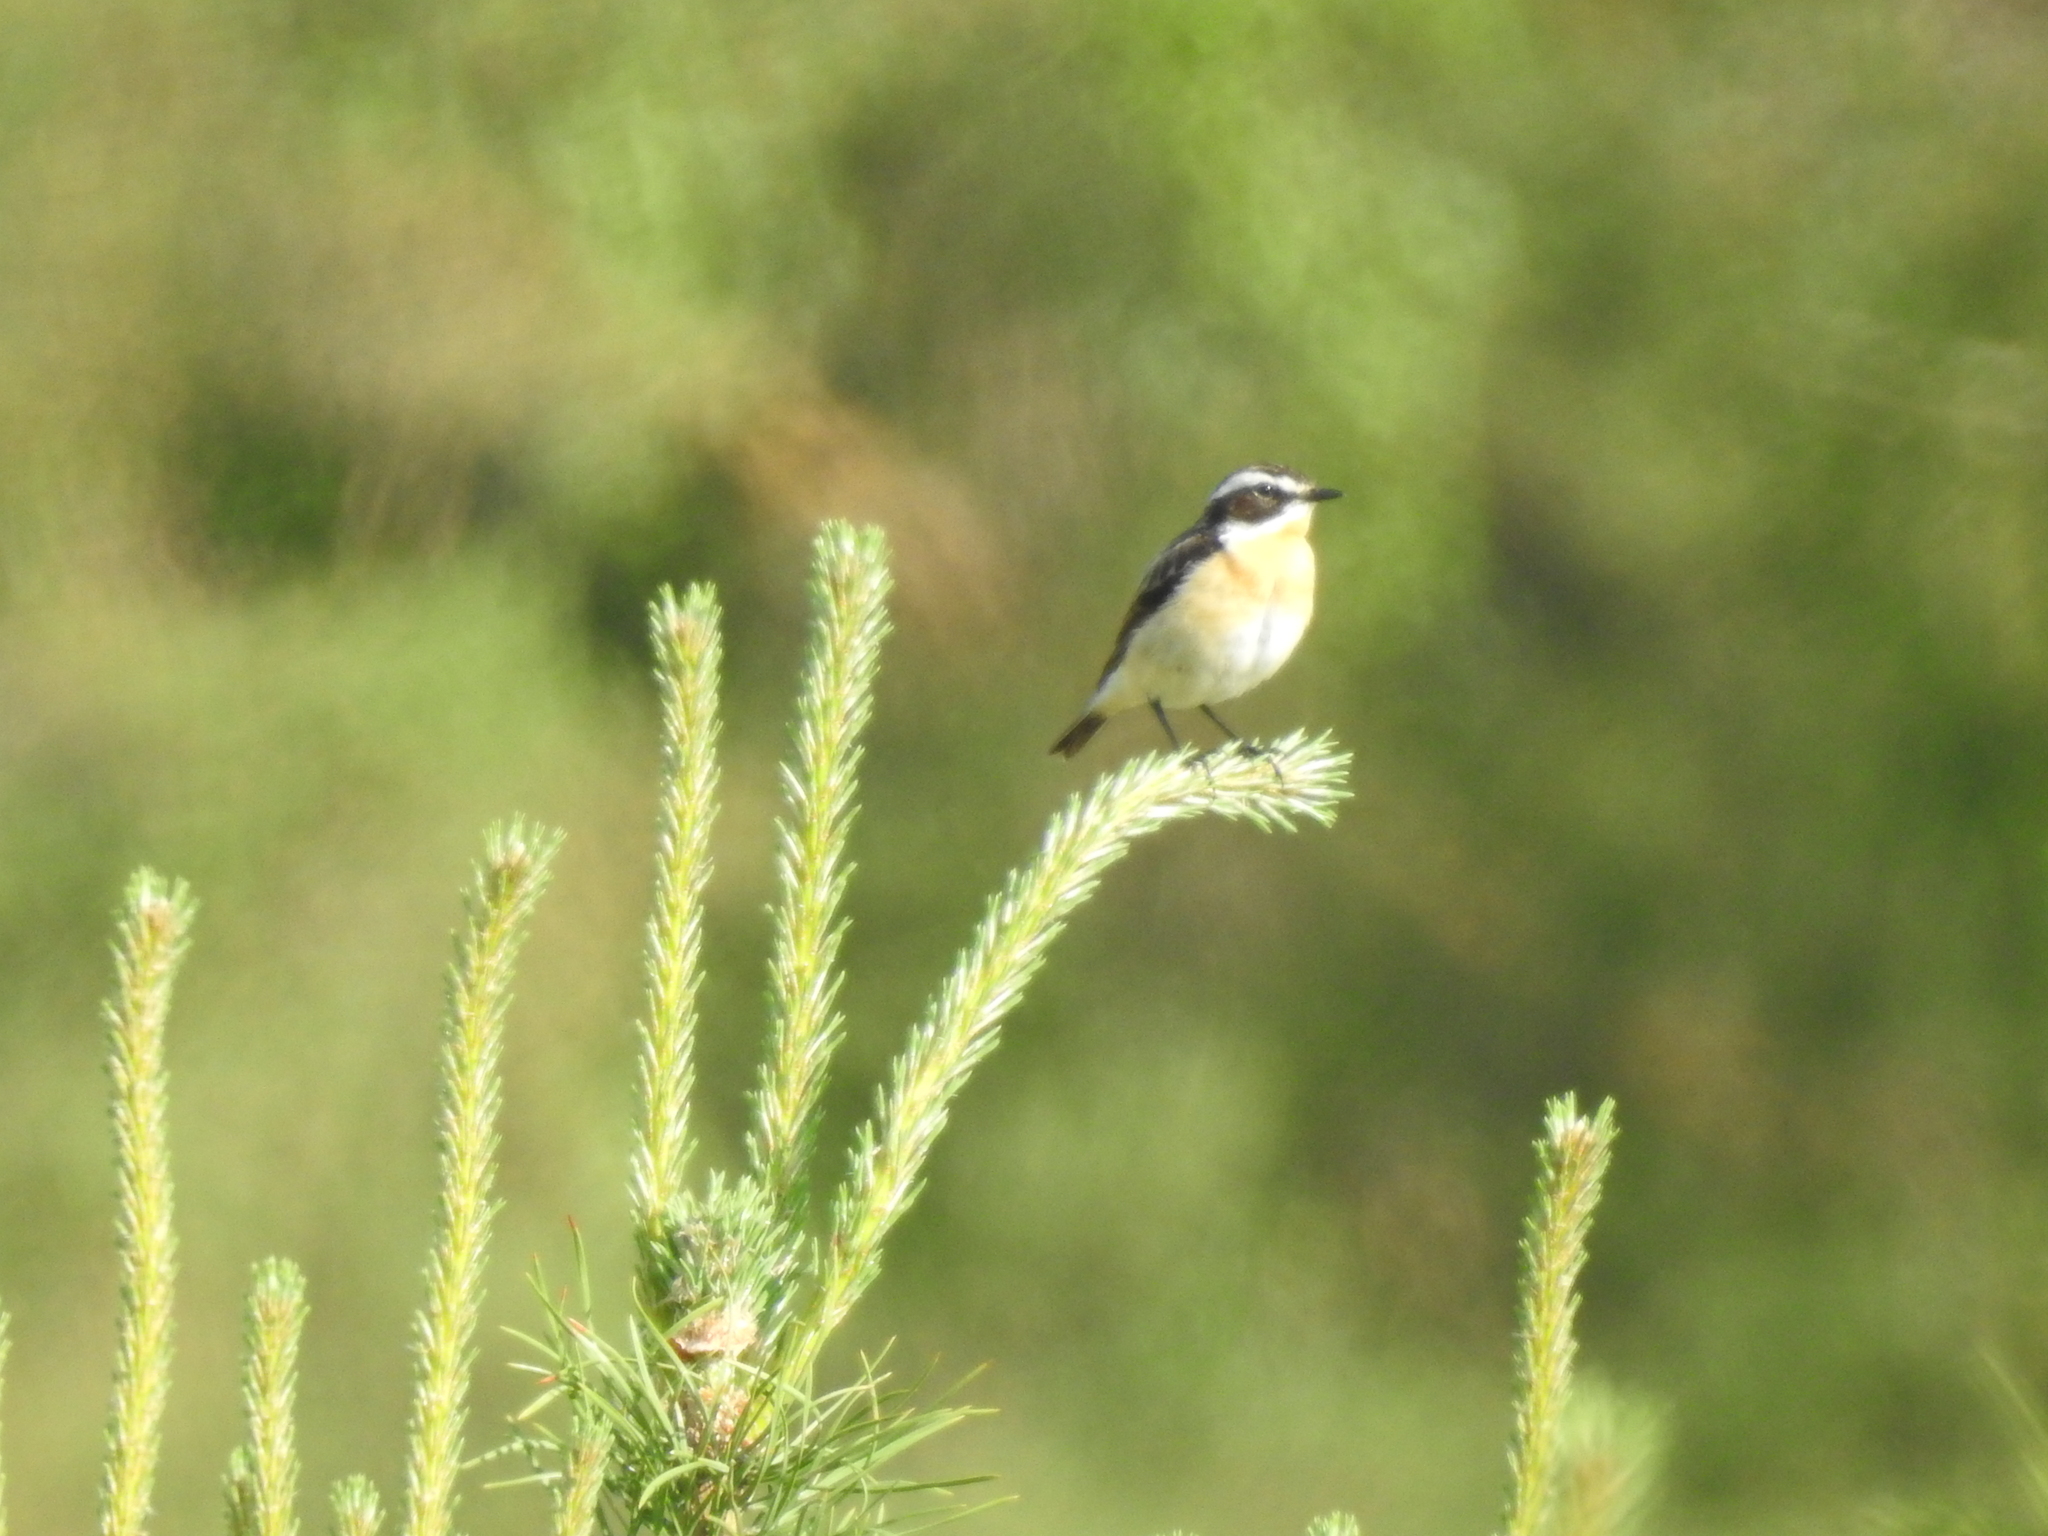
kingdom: Animalia
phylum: Chordata
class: Aves
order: Passeriformes
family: Muscicapidae
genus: Saxicola
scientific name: Saxicola rubetra
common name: Whinchat
